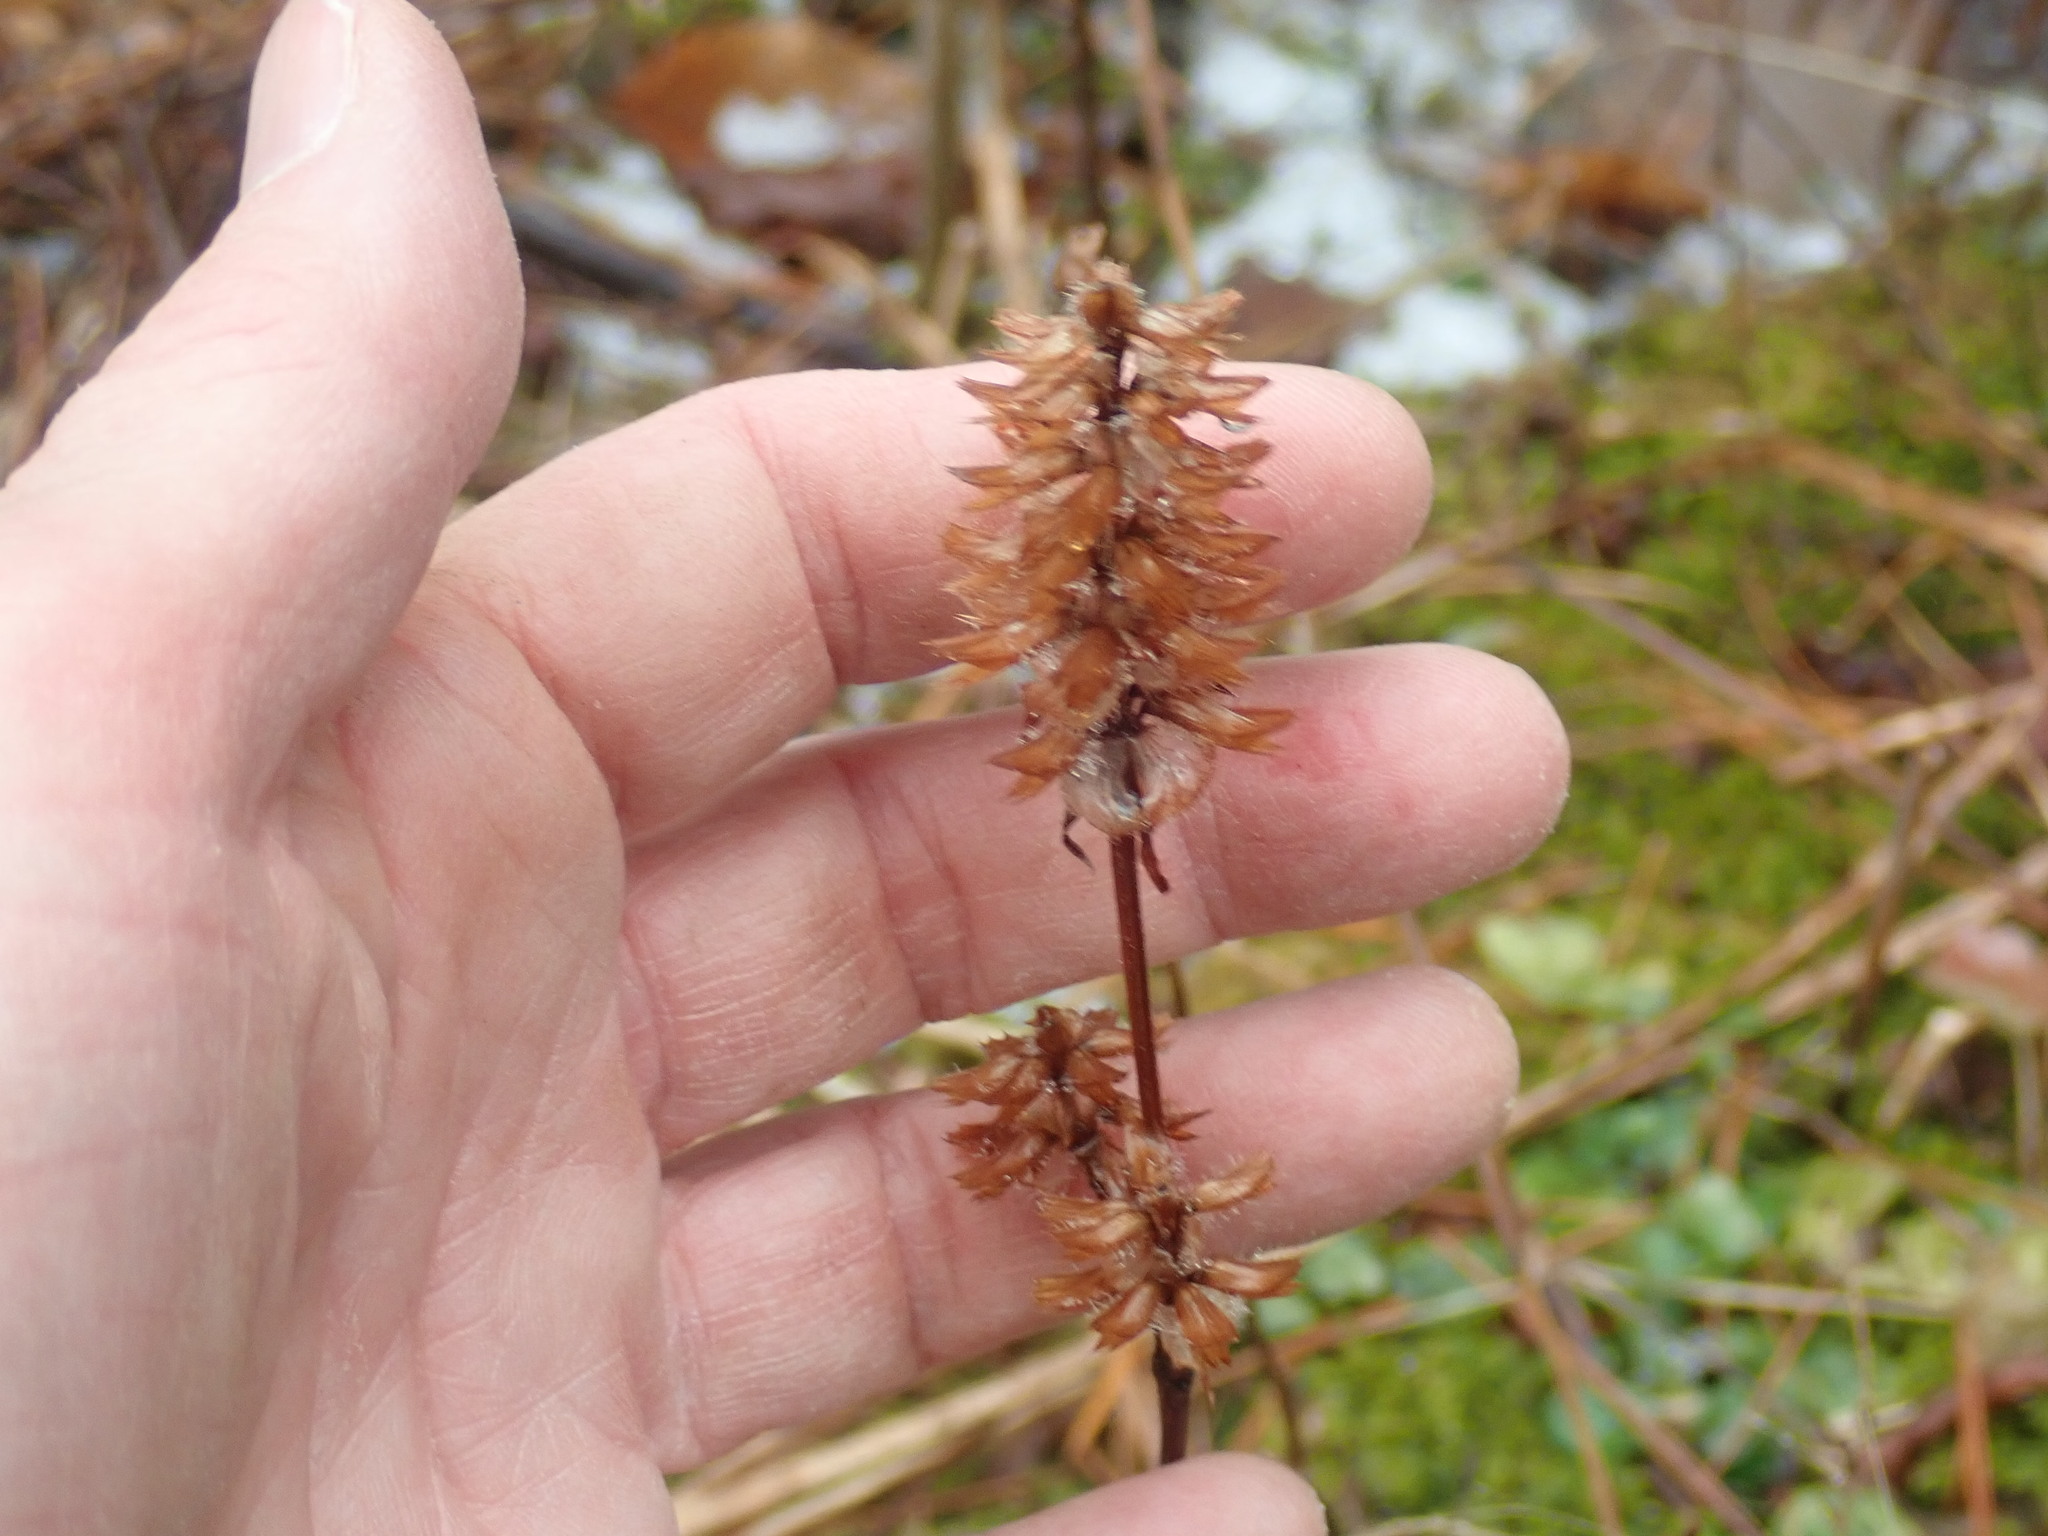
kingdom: Plantae
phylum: Tracheophyta
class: Magnoliopsida
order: Lamiales
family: Lamiaceae
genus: Prunella
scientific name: Prunella vulgaris
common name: Heal-all
